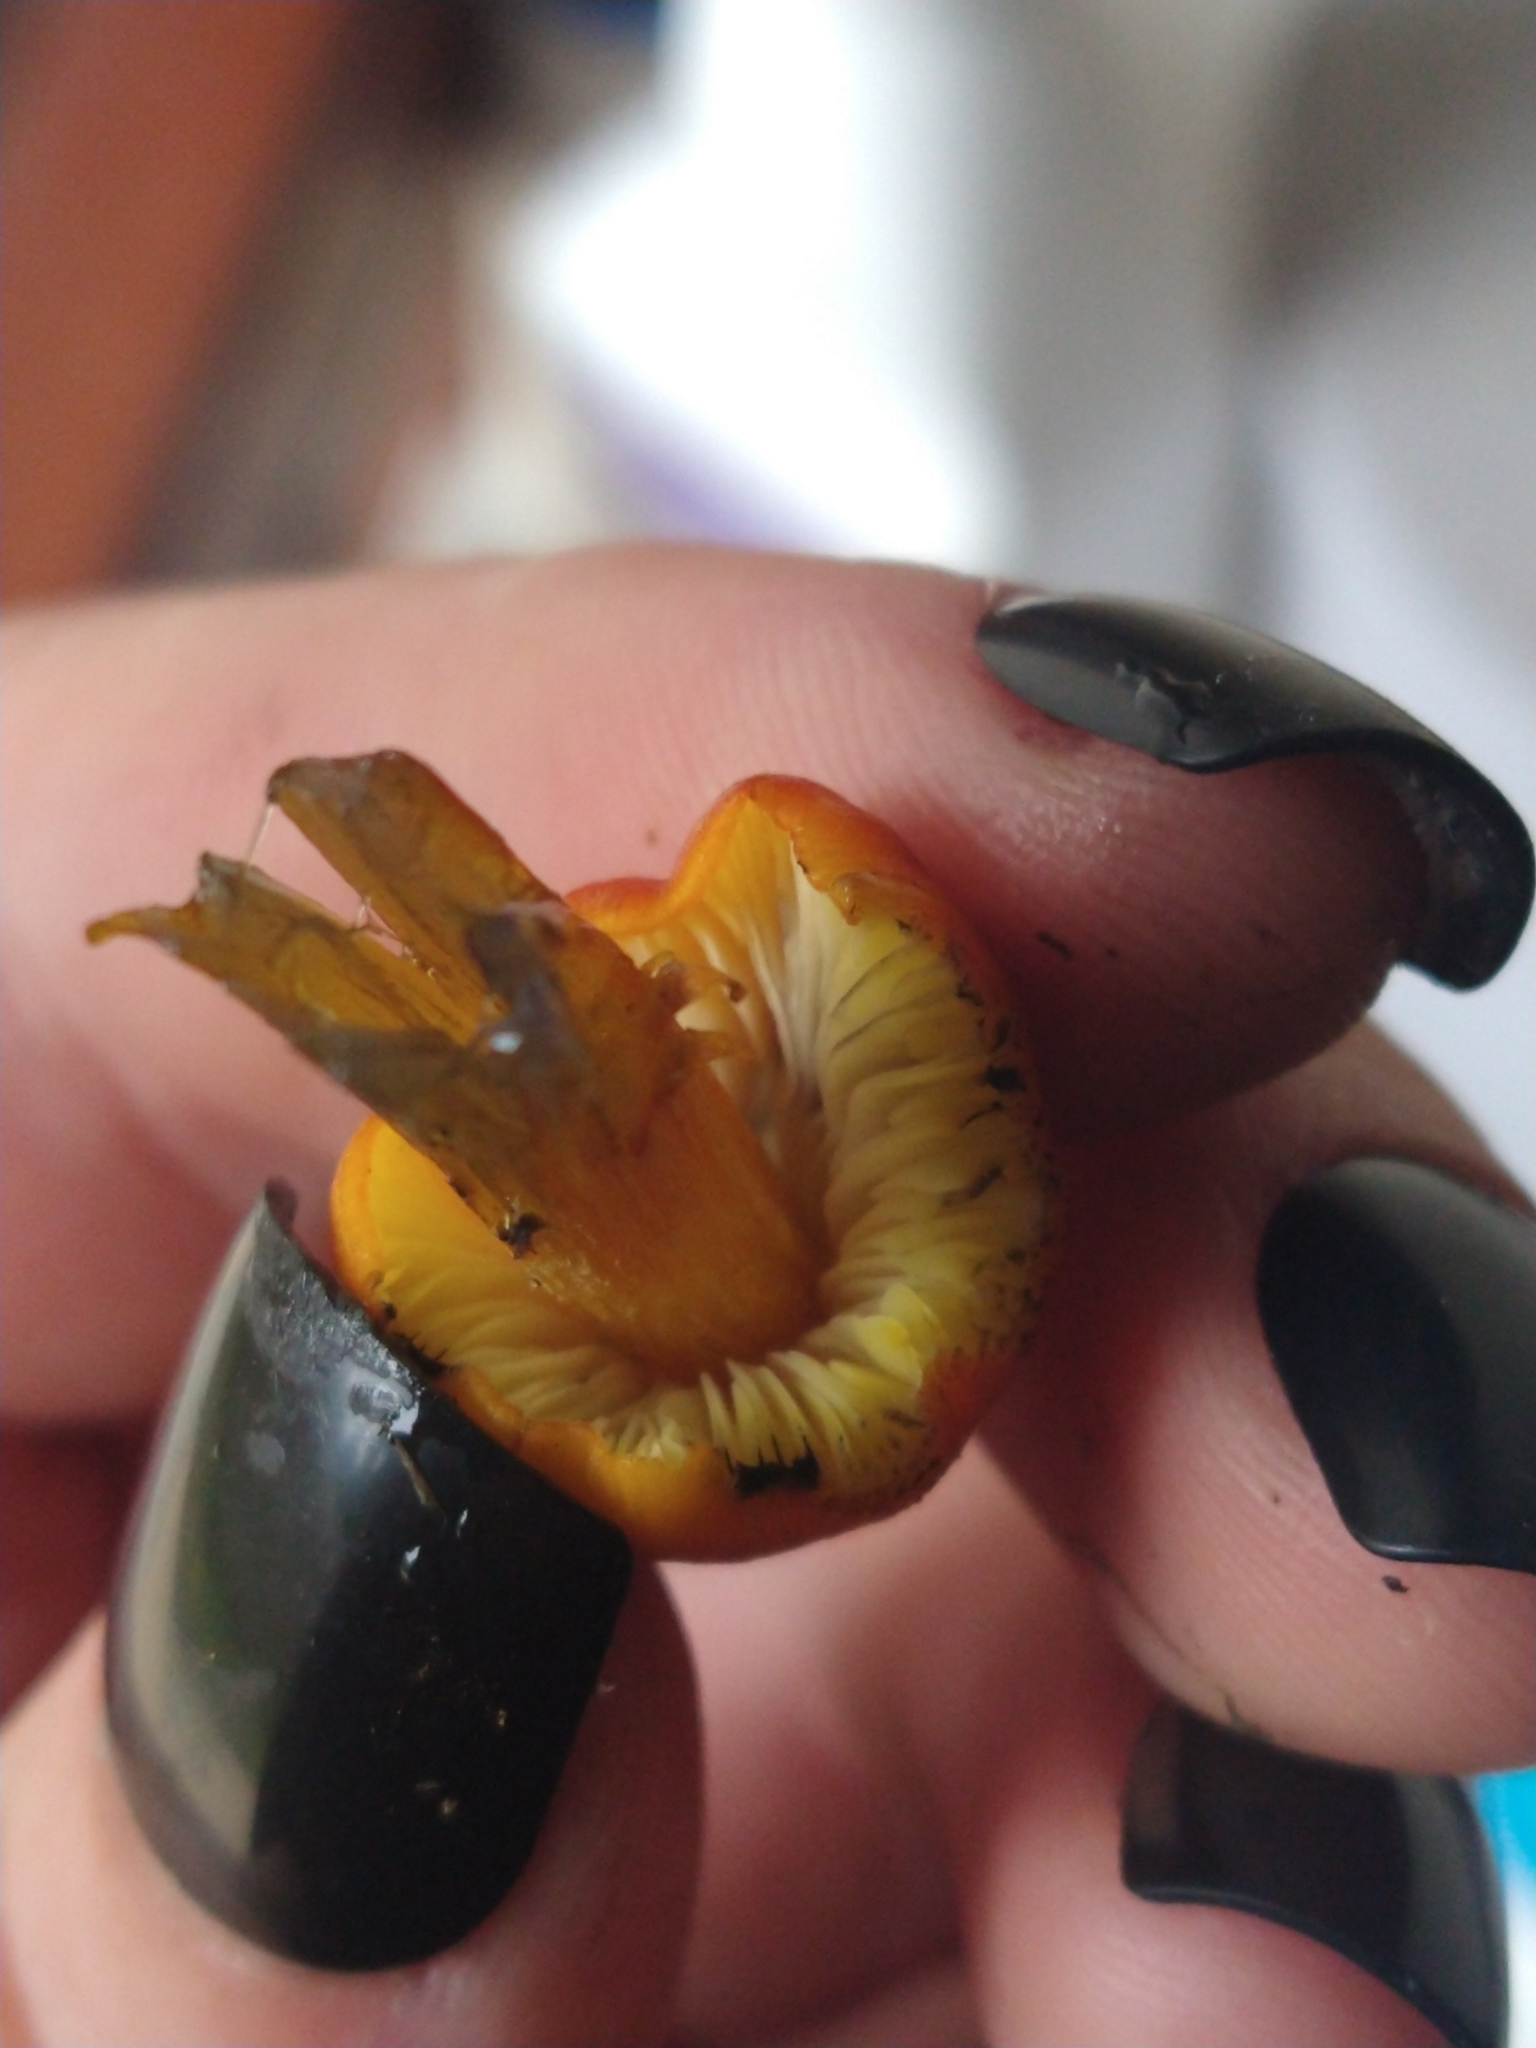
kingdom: Fungi
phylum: Basidiomycota
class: Agaricomycetes
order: Agaricales
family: Hygrophoraceae
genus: Hygrocybe
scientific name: Hygrocybe conica
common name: Blackening wax-cap
